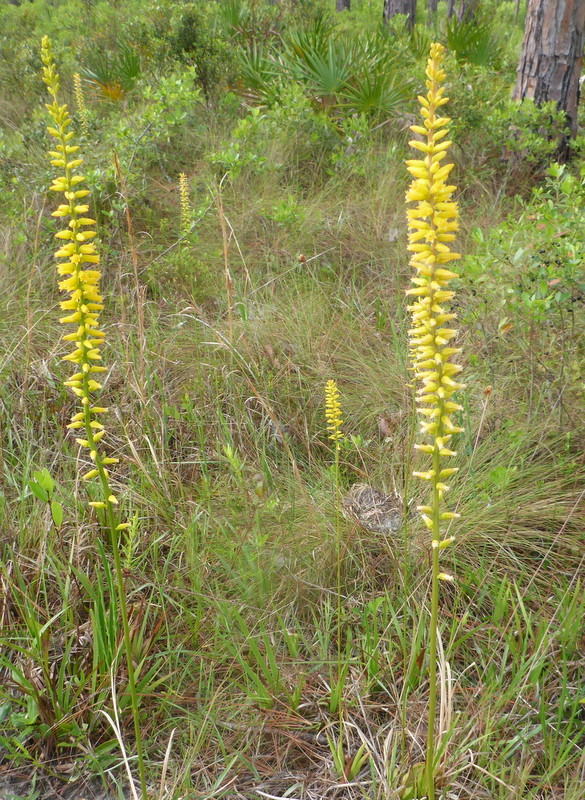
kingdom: Plantae
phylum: Tracheophyta
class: Liliopsida
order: Dioscoreales
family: Nartheciaceae
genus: Aletris
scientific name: Aletris lutea
